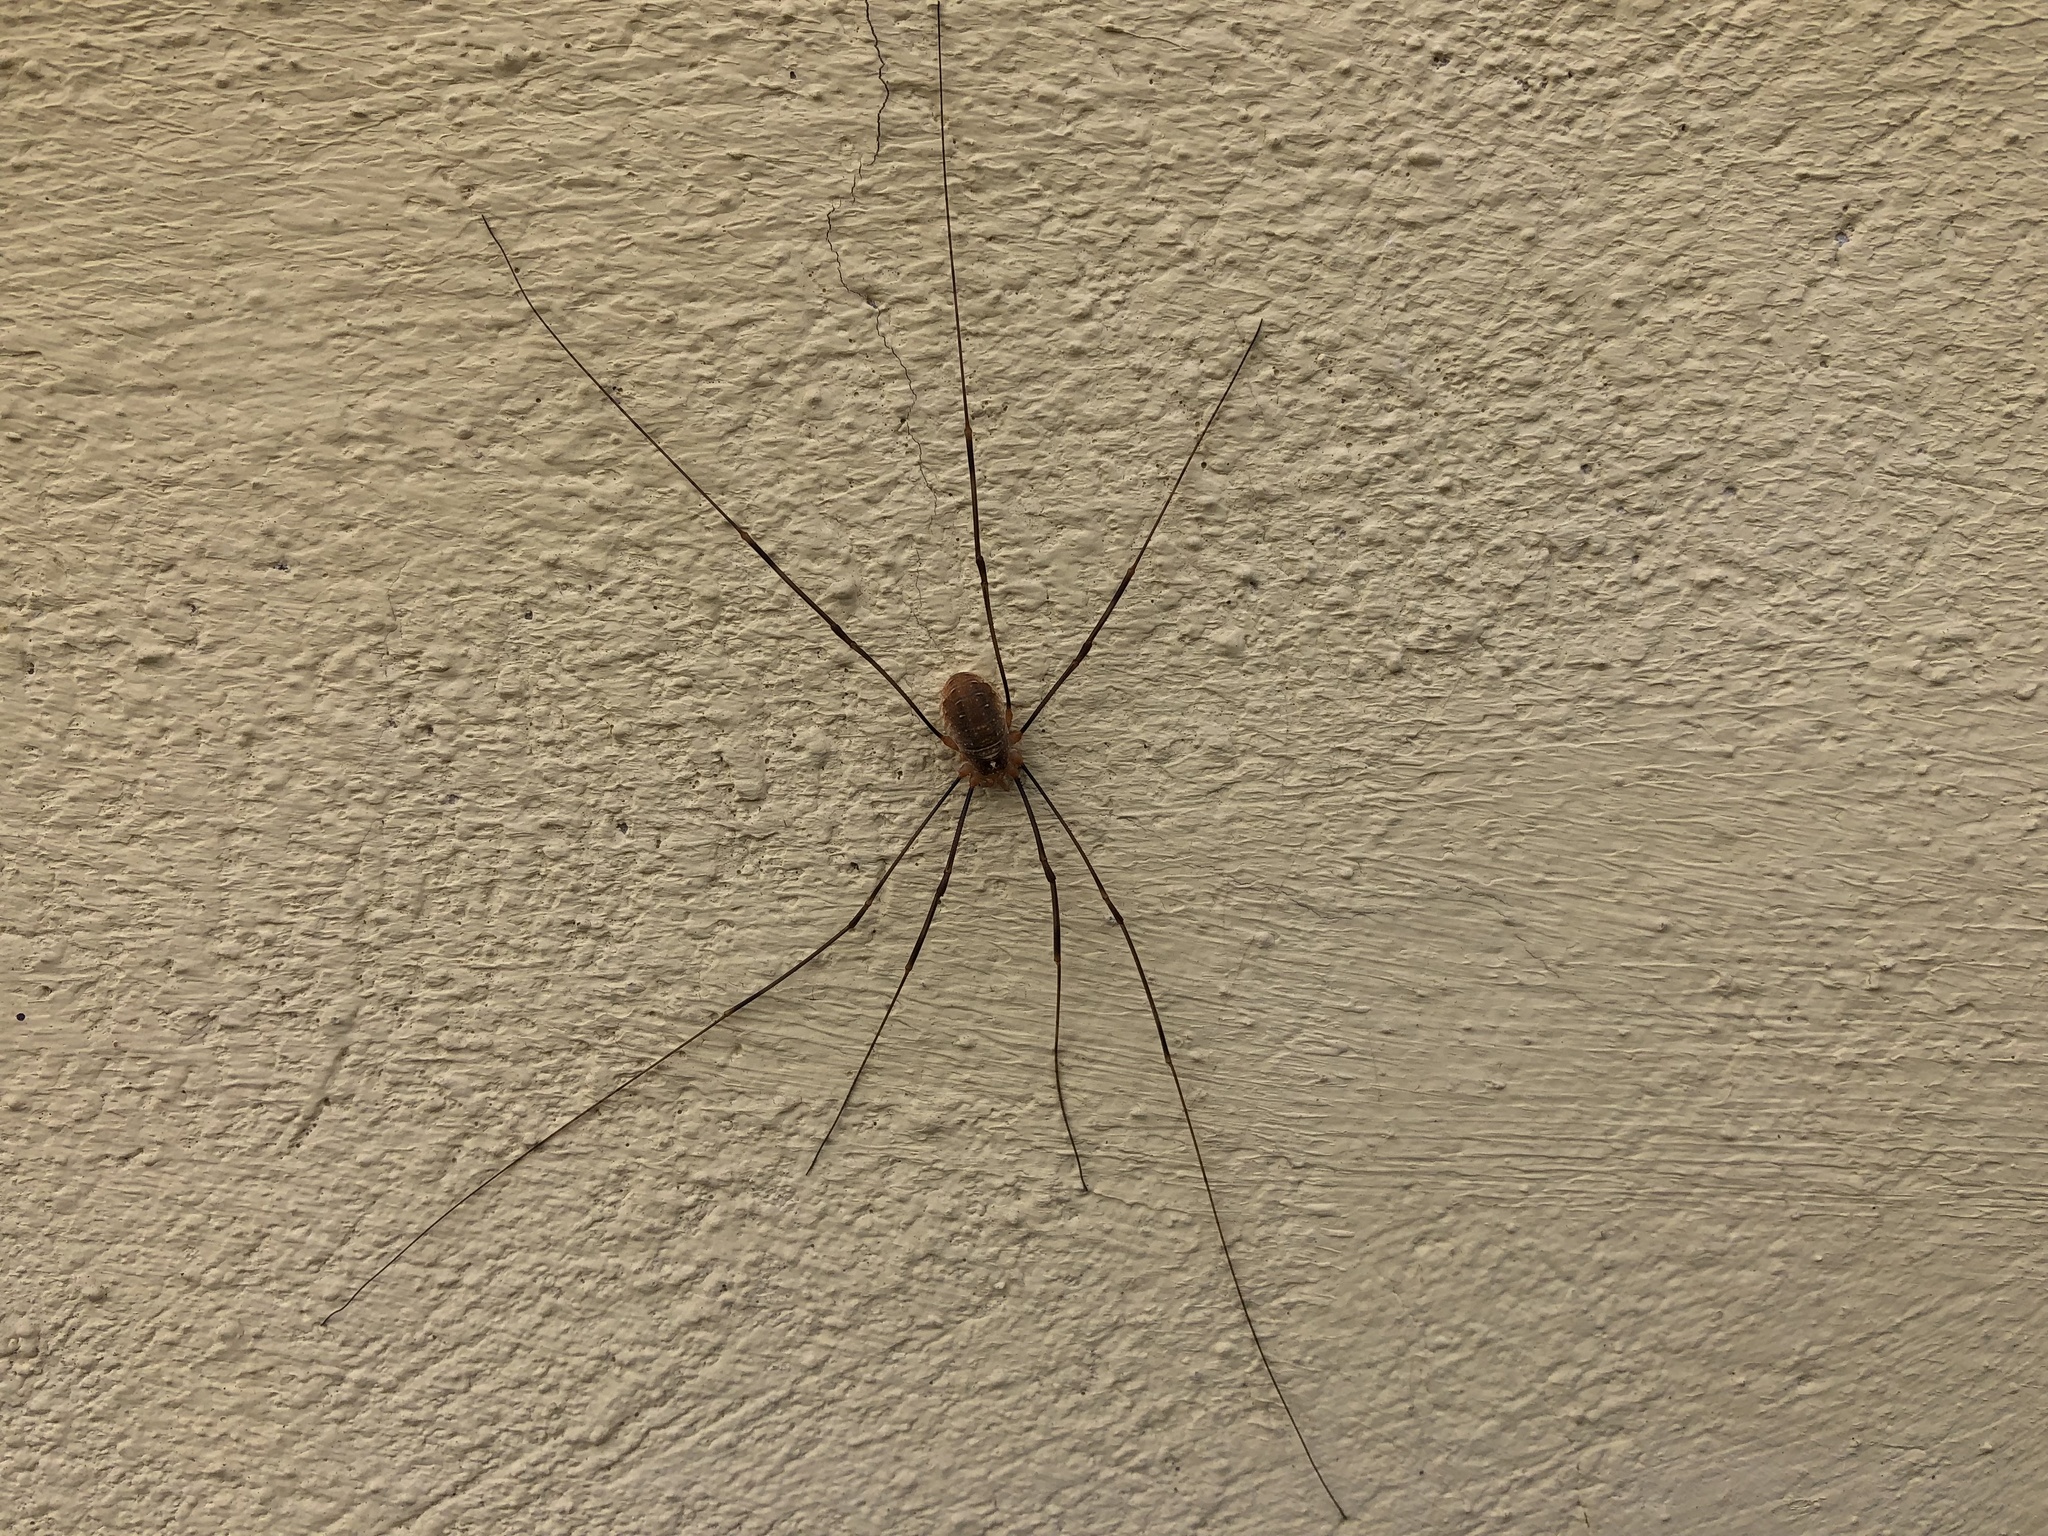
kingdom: Animalia
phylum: Arthropoda
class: Arachnida
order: Opiliones
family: Phalangiidae
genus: Opilio
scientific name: Opilio canestrinii
